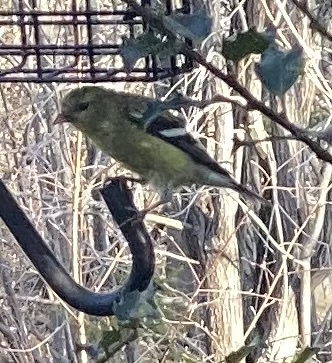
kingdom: Animalia
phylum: Chordata
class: Aves
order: Passeriformes
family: Fringillidae
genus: Spinus
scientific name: Spinus tristis
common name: American goldfinch
